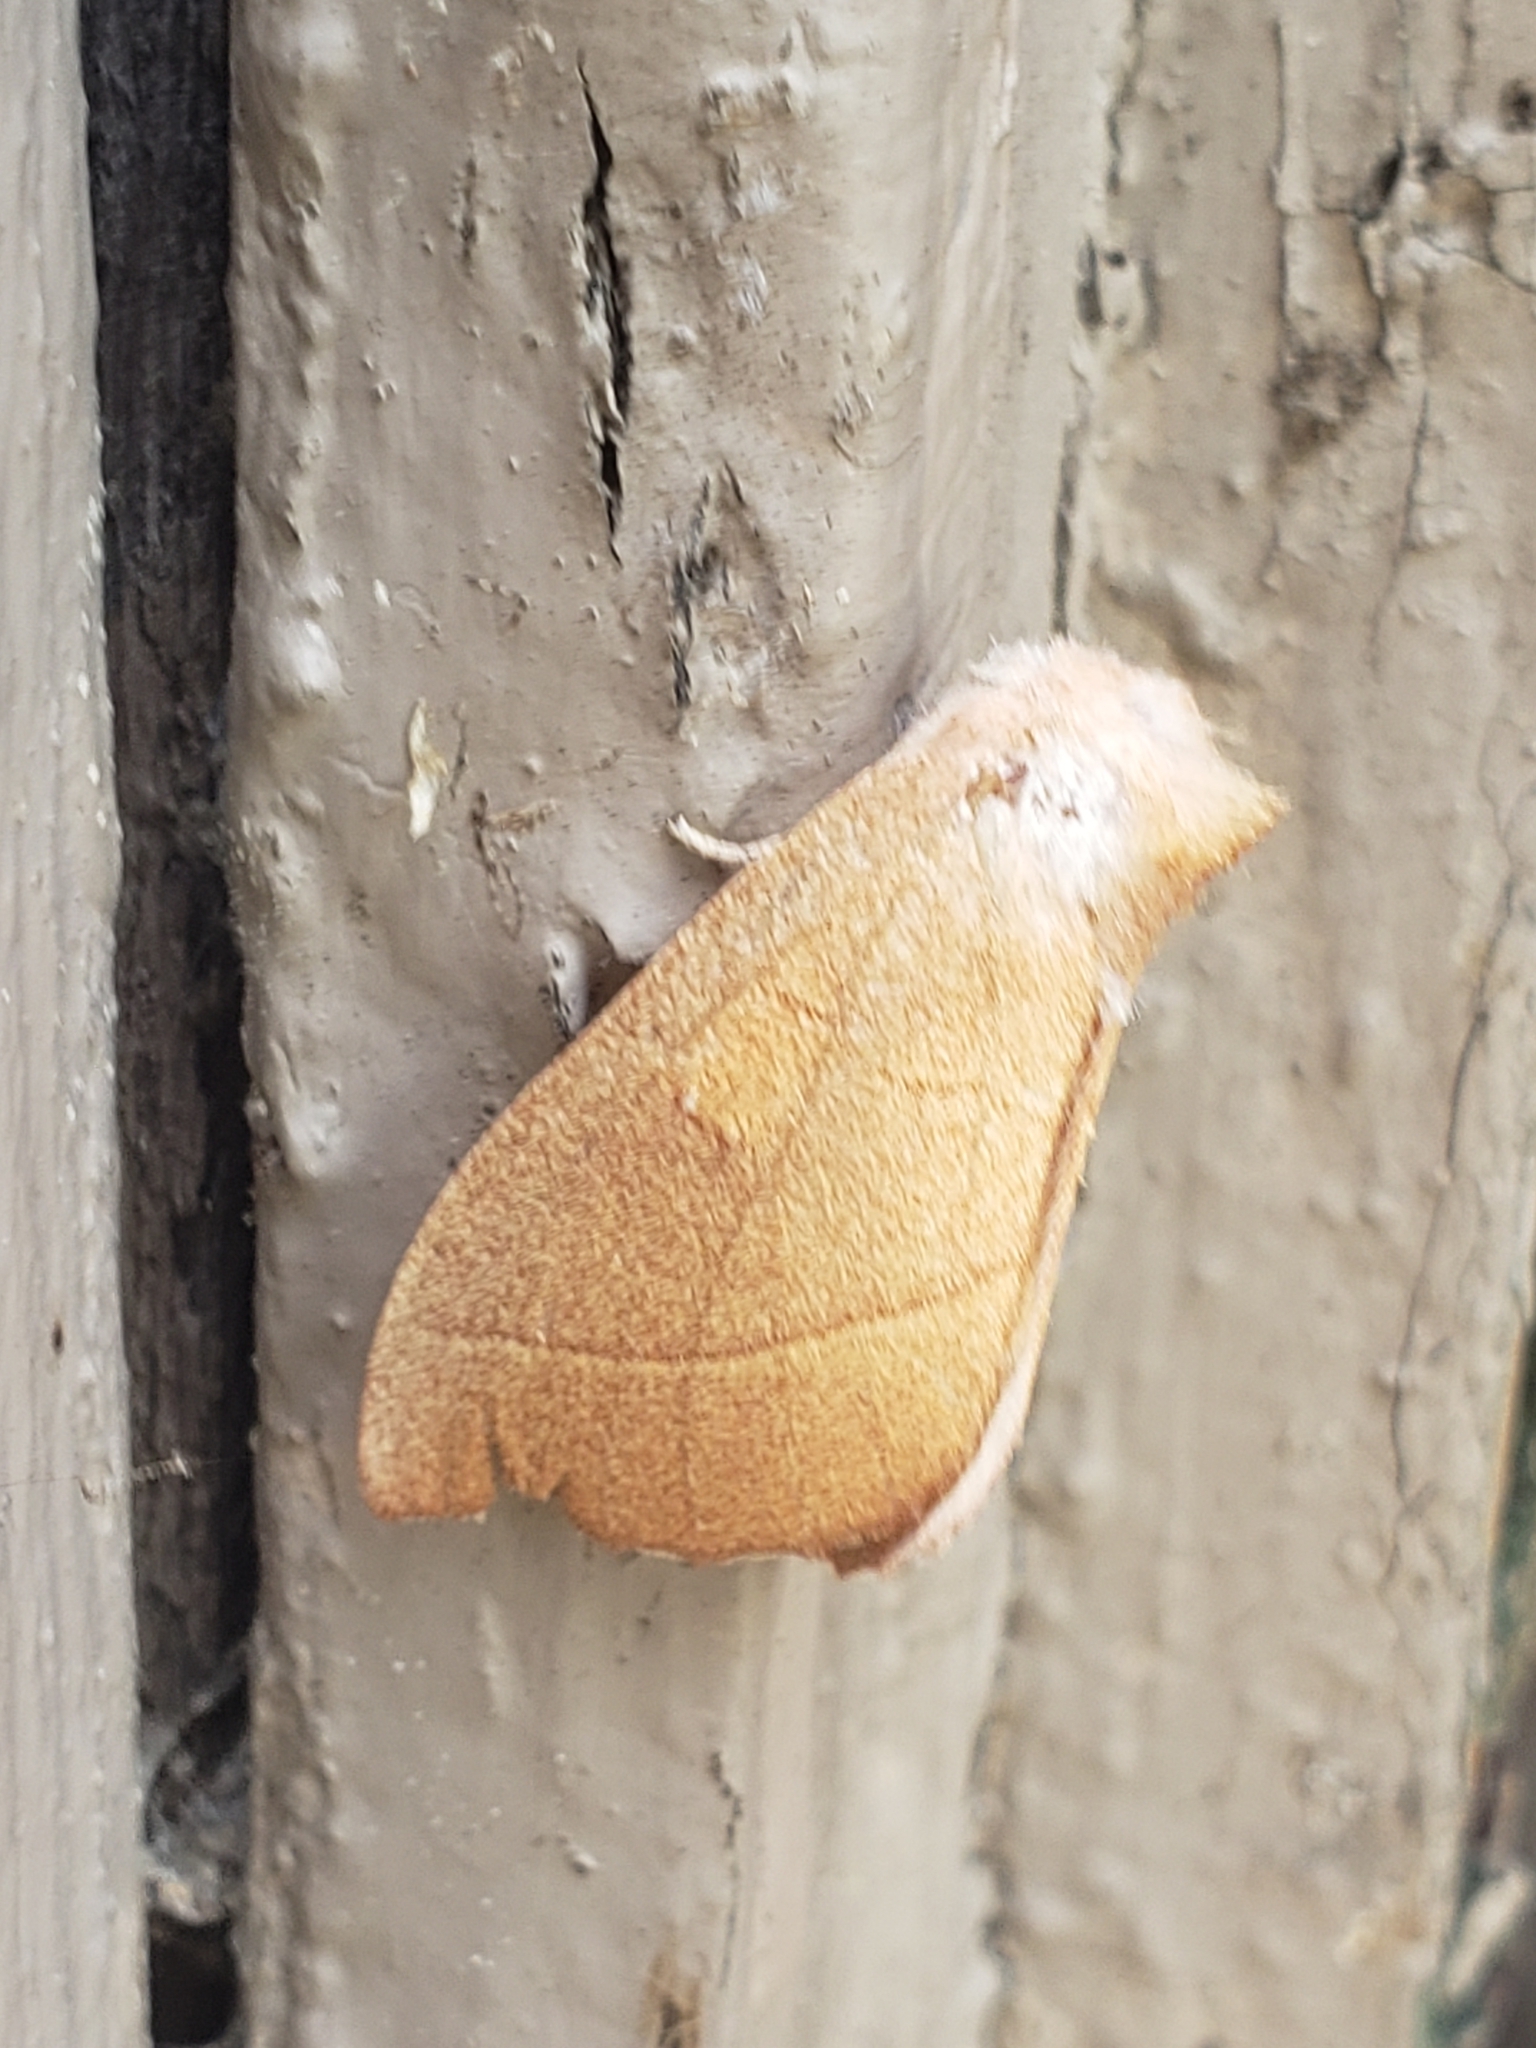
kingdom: Animalia
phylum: Arthropoda
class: Insecta
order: Lepidoptera
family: Notodontidae
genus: Nadata
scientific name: Nadata gibbosa
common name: White-dotted prominent
